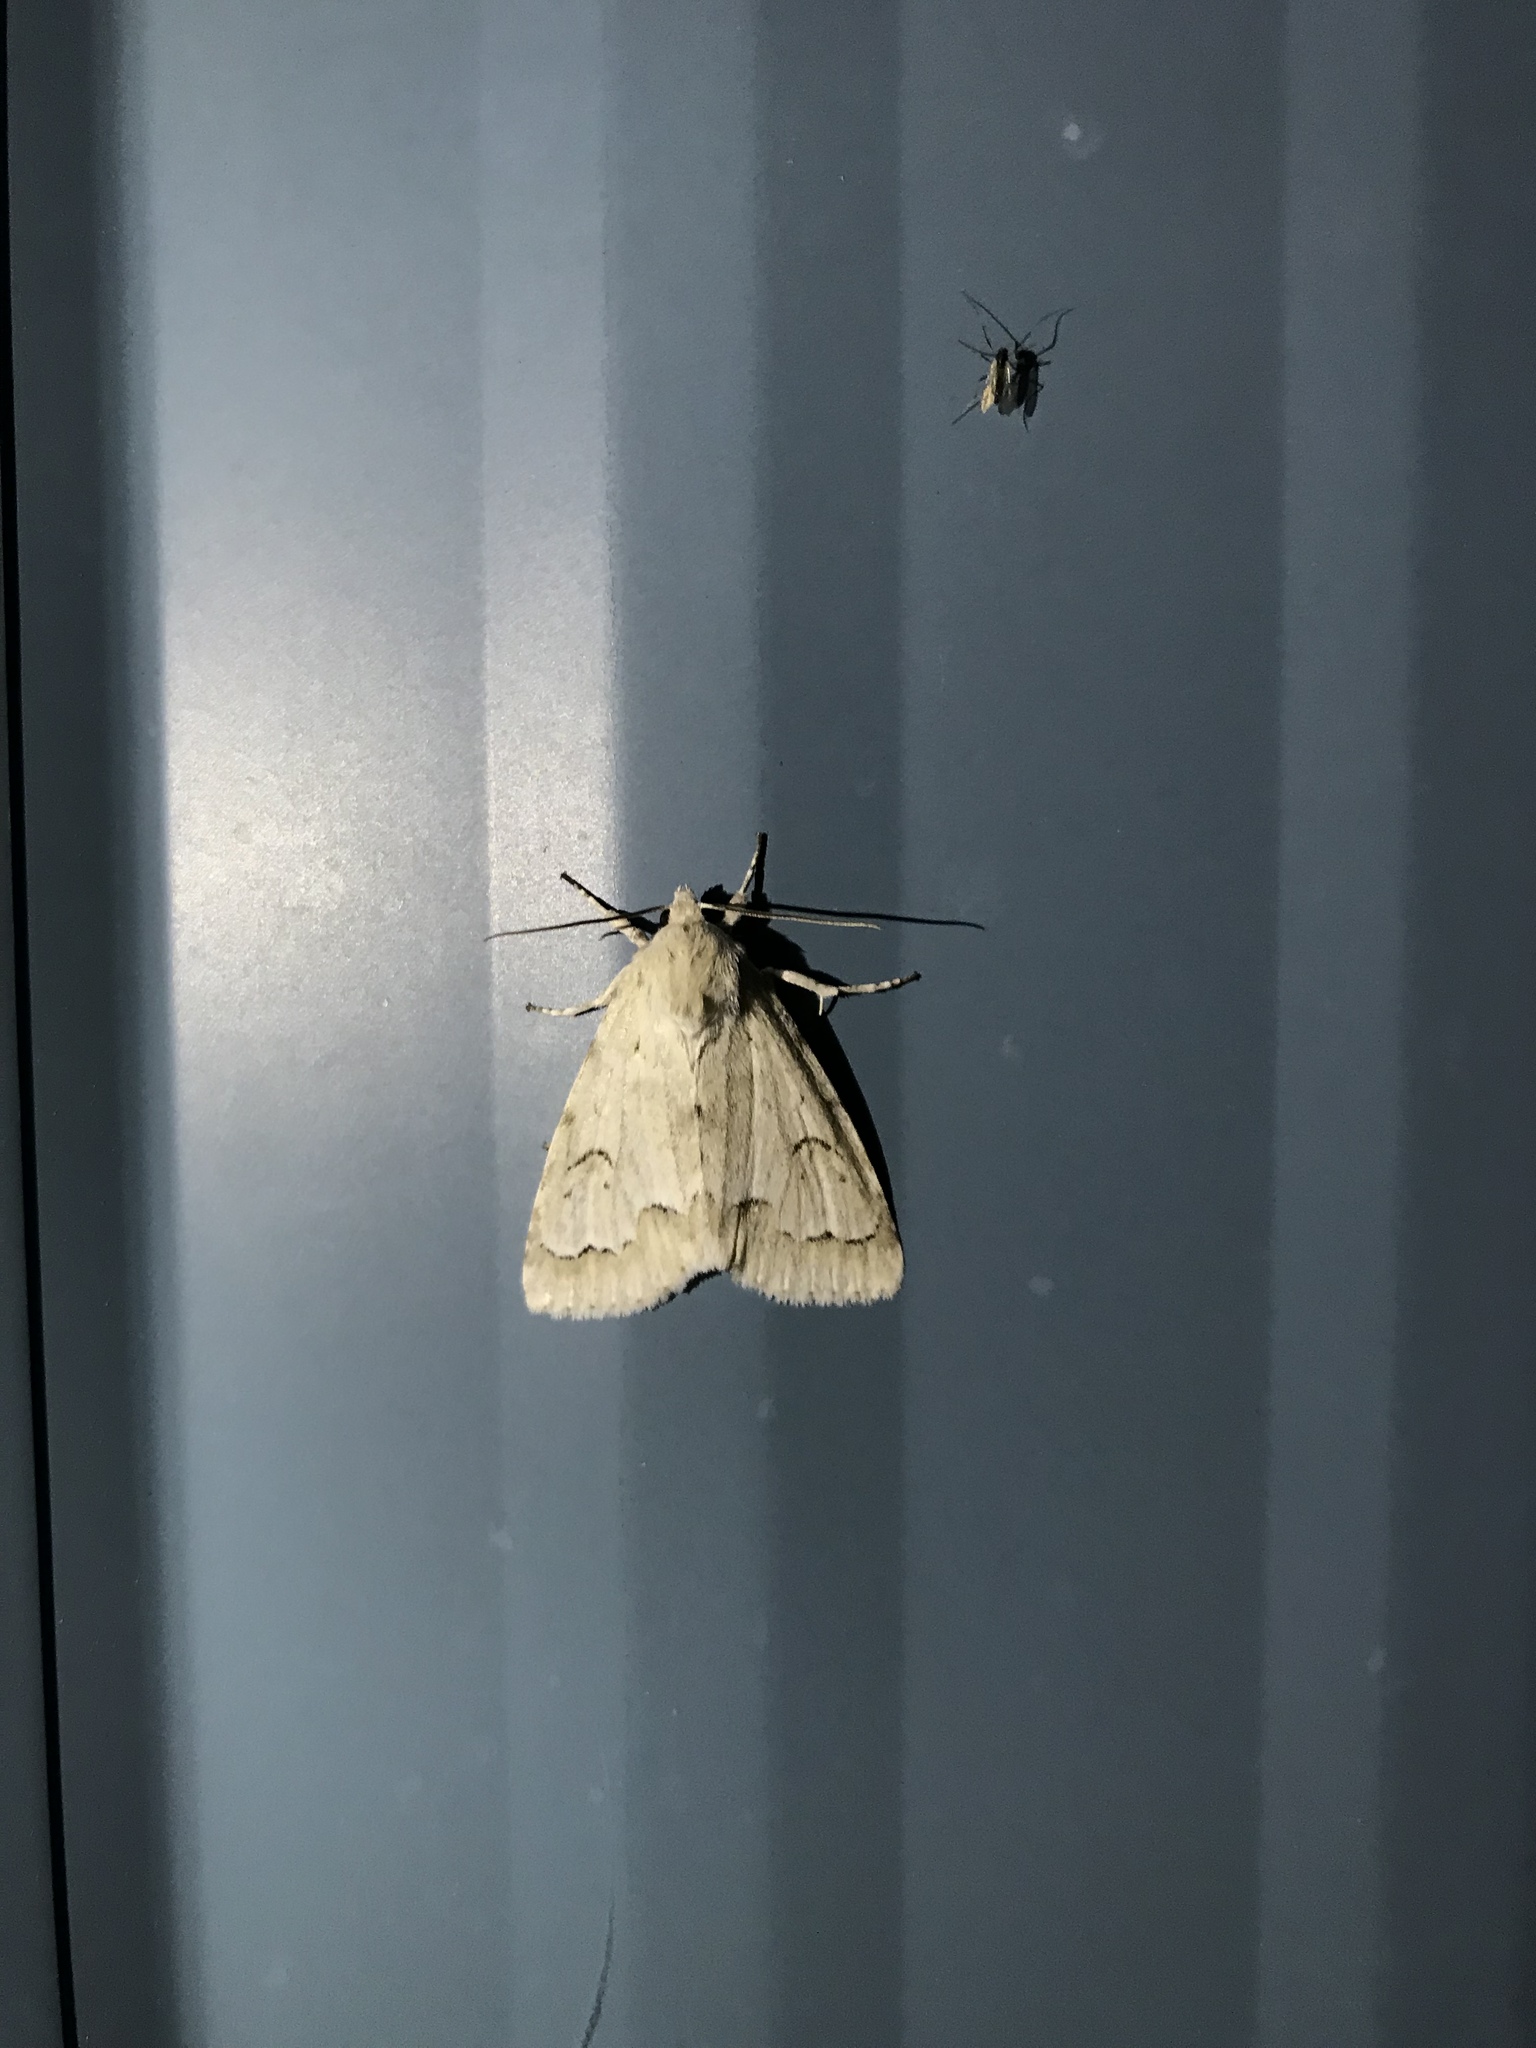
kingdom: Animalia
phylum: Arthropoda
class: Insecta
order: Lepidoptera
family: Noctuidae
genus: Acronicta
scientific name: Acronicta innotata
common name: Unmarked dagger
